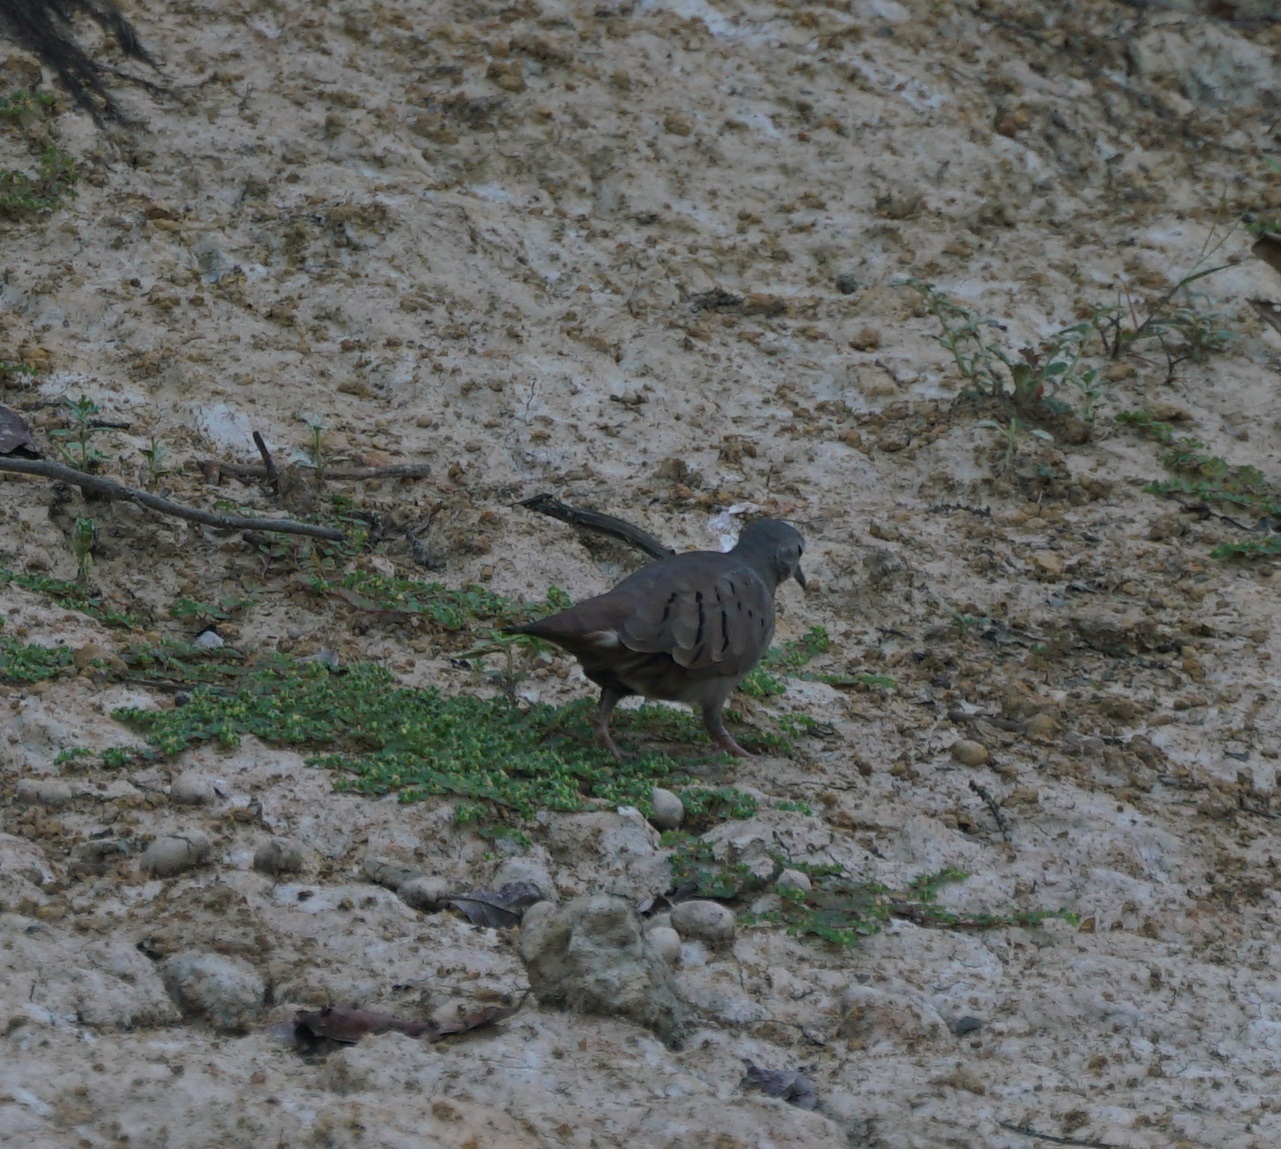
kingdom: Animalia
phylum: Chordata
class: Aves
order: Columbiformes
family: Columbidae
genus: Columbina
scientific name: Columbina talpacoti
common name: Ruddy ground dove
